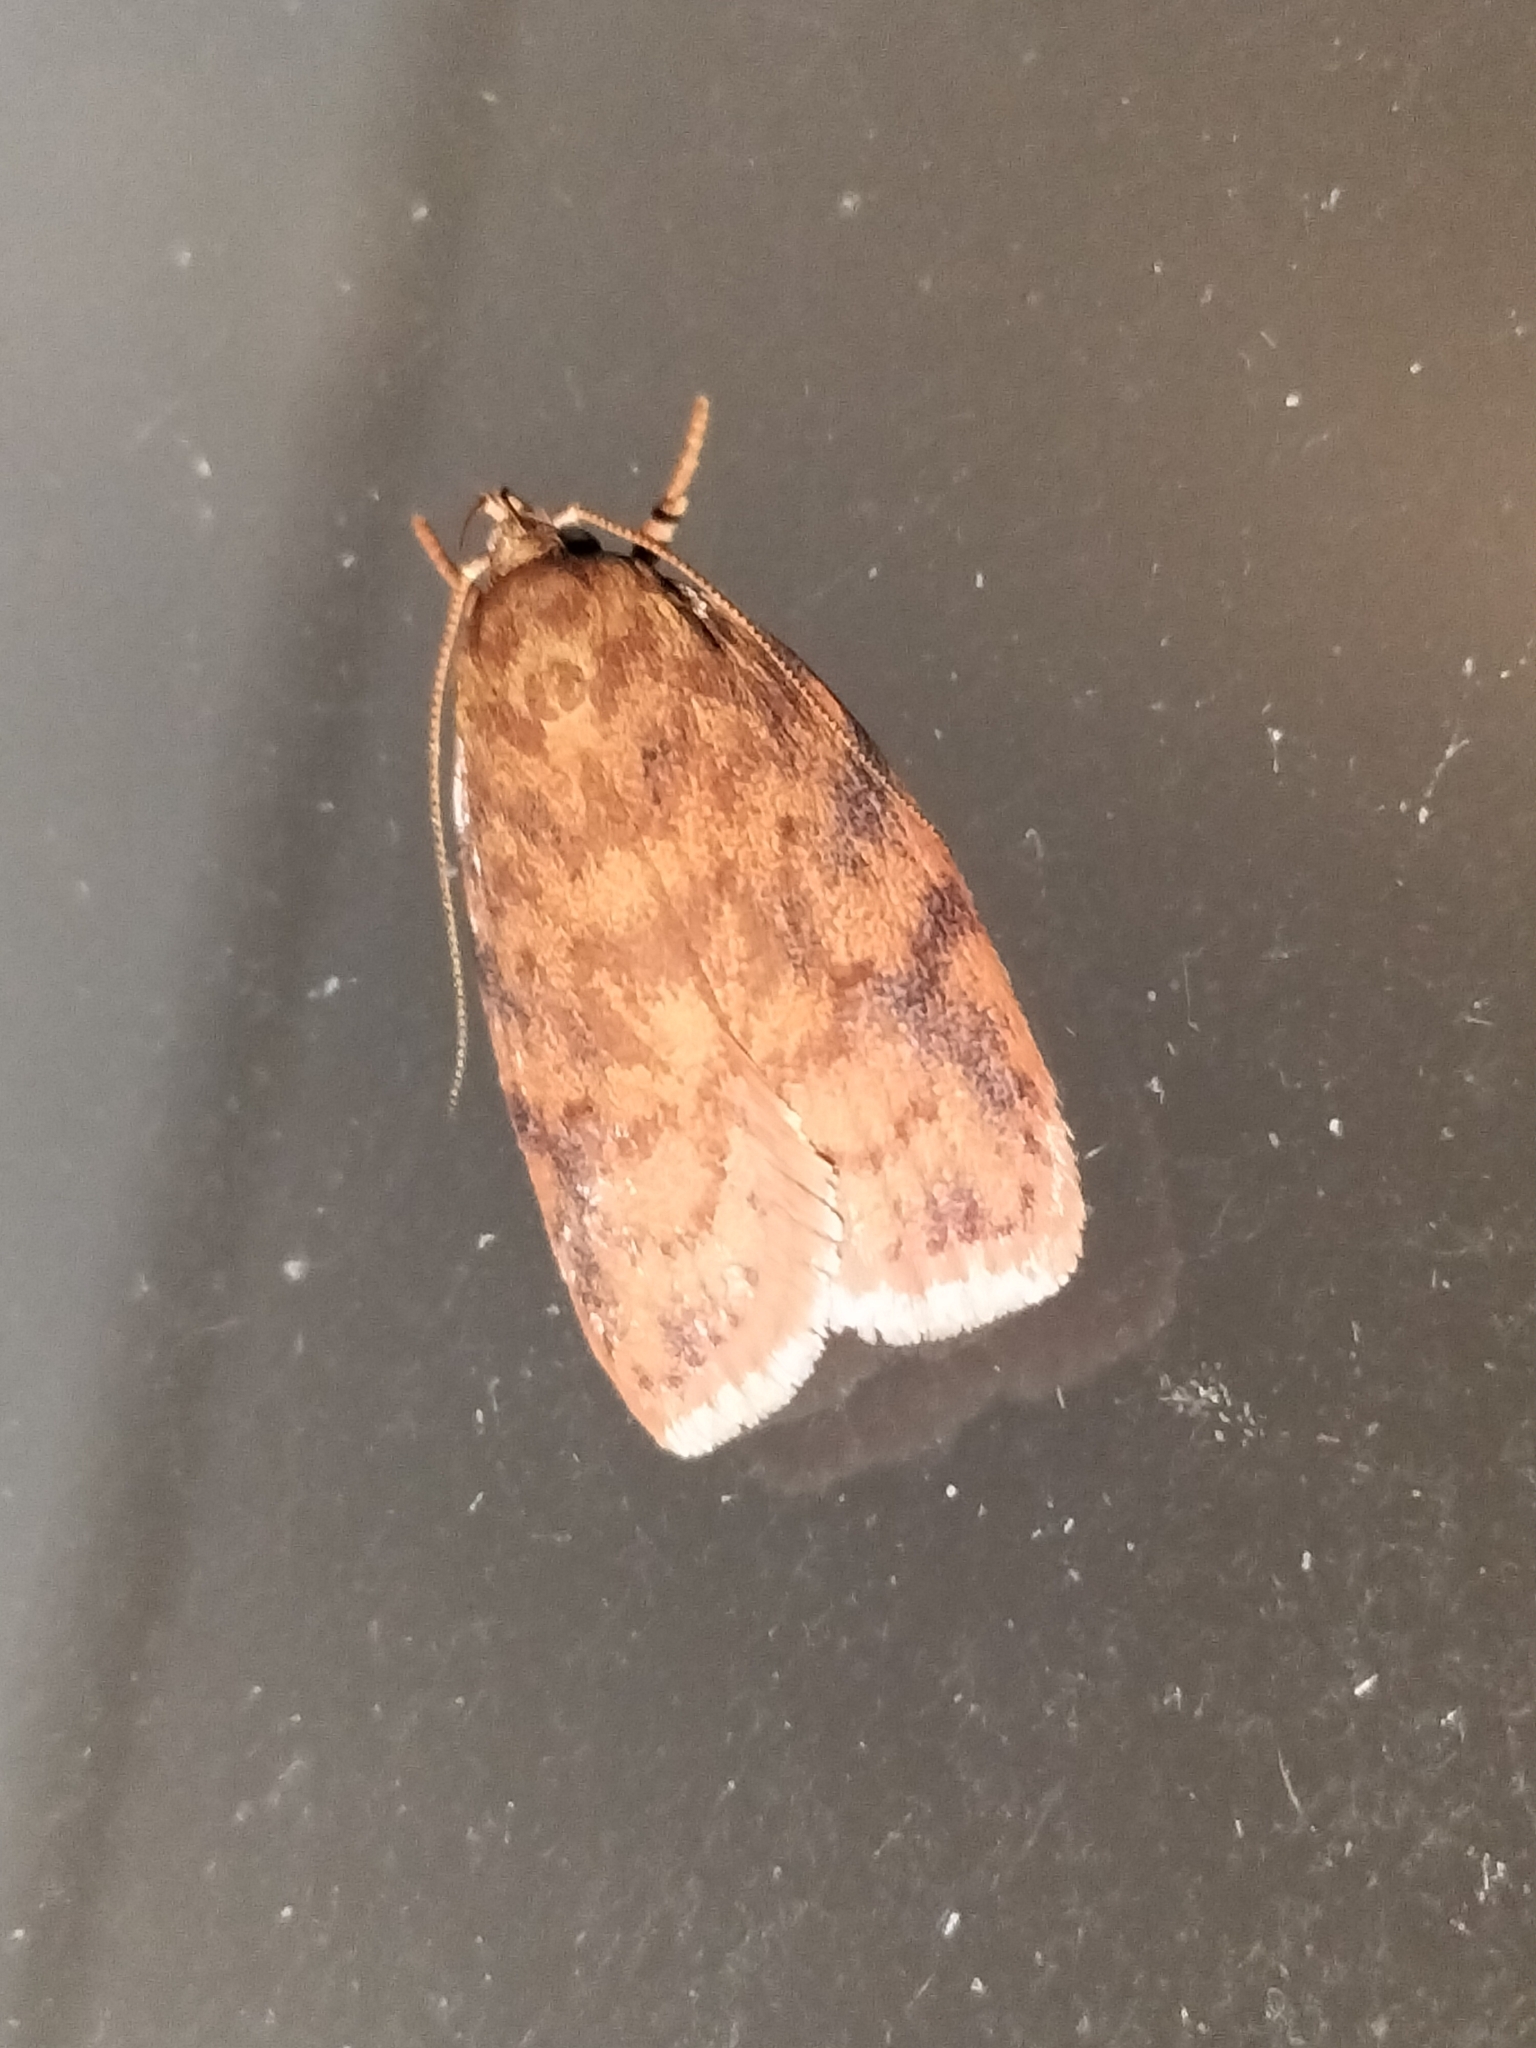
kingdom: Animalia
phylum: Arthropoda
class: Insecta
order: Lepidoptera
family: Oecophoridae
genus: Garrha
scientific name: Garrha costimacula
